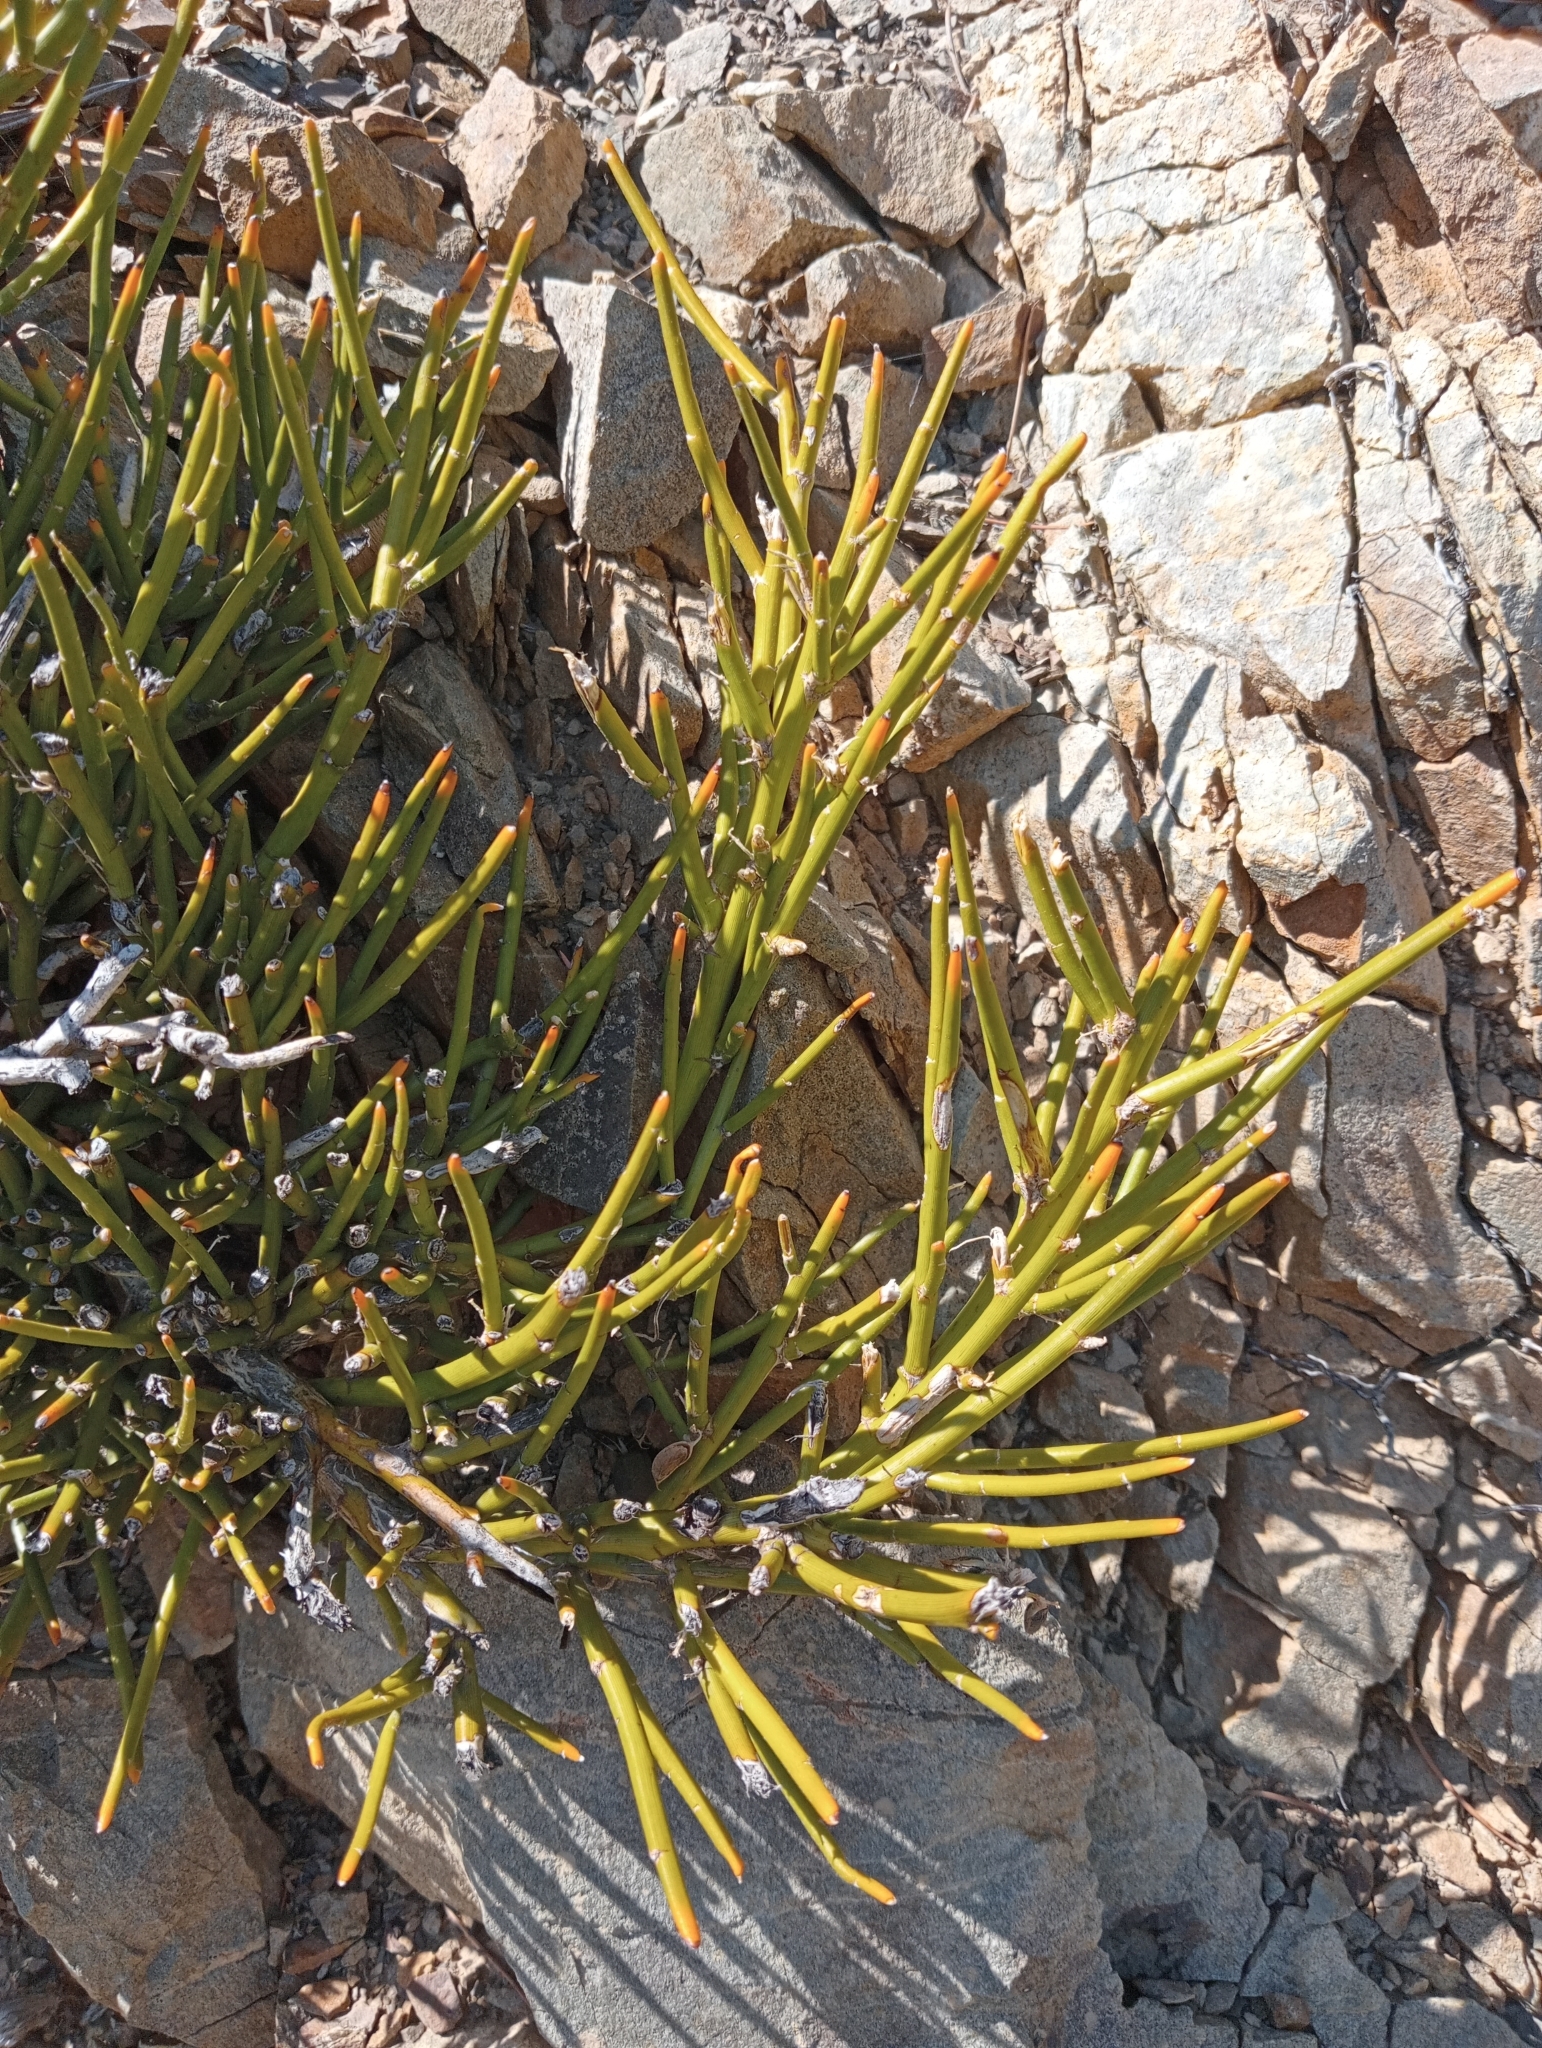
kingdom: Plantae
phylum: Tracheophyta
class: Magnoliopsida
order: Fabales
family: Fabaceae
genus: Carmichaelia
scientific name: Carmichaelia petriei
